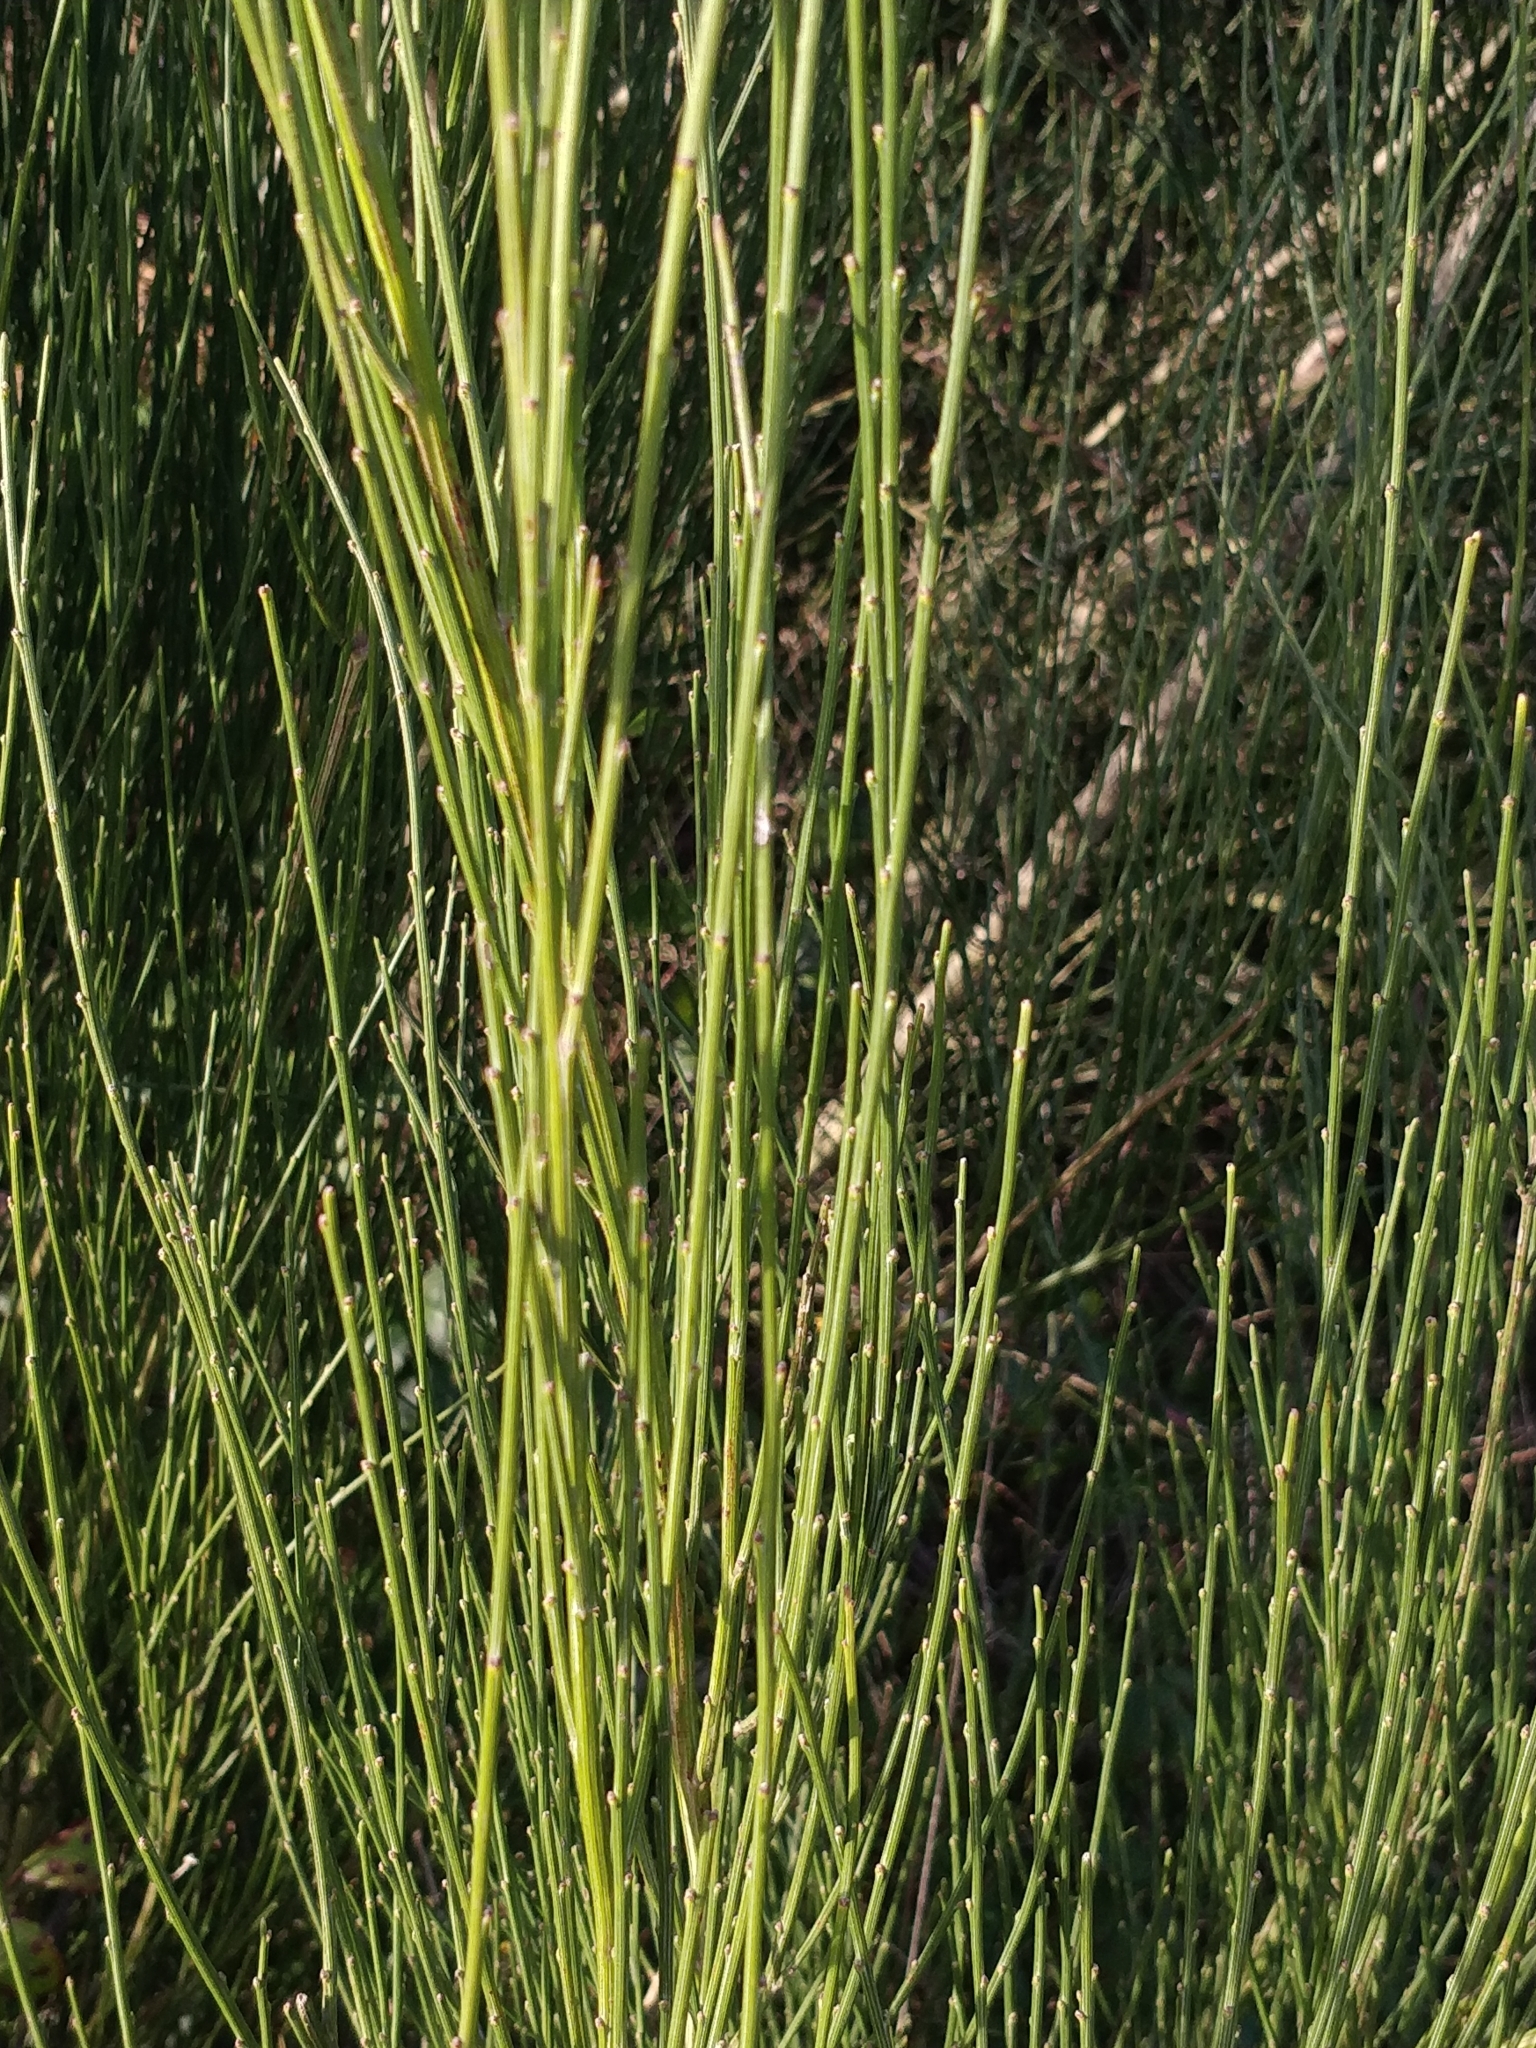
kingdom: Plantae
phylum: Tracheophyta
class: Magnoliopsida
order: Fabales
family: Fabaceae
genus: Cytisus
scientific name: Cytisus scoparius
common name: Scotch broom
